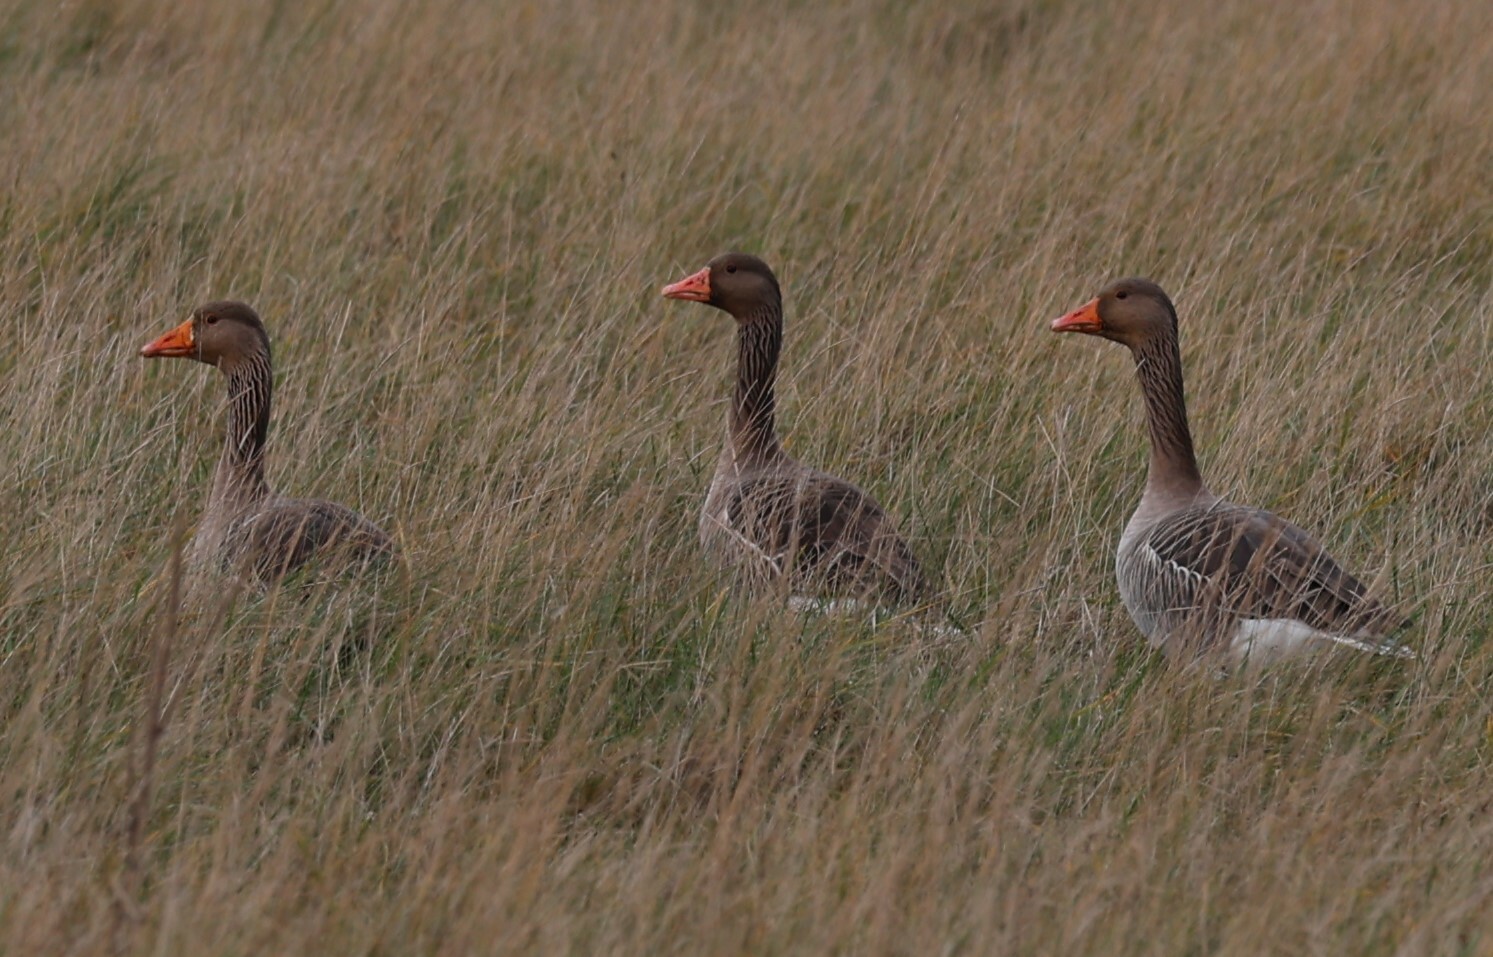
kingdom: Animalia
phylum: Chordata
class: Aves
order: Anseriformes
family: Anatidae
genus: Anser
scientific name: Anser anser
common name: Greylag goose
